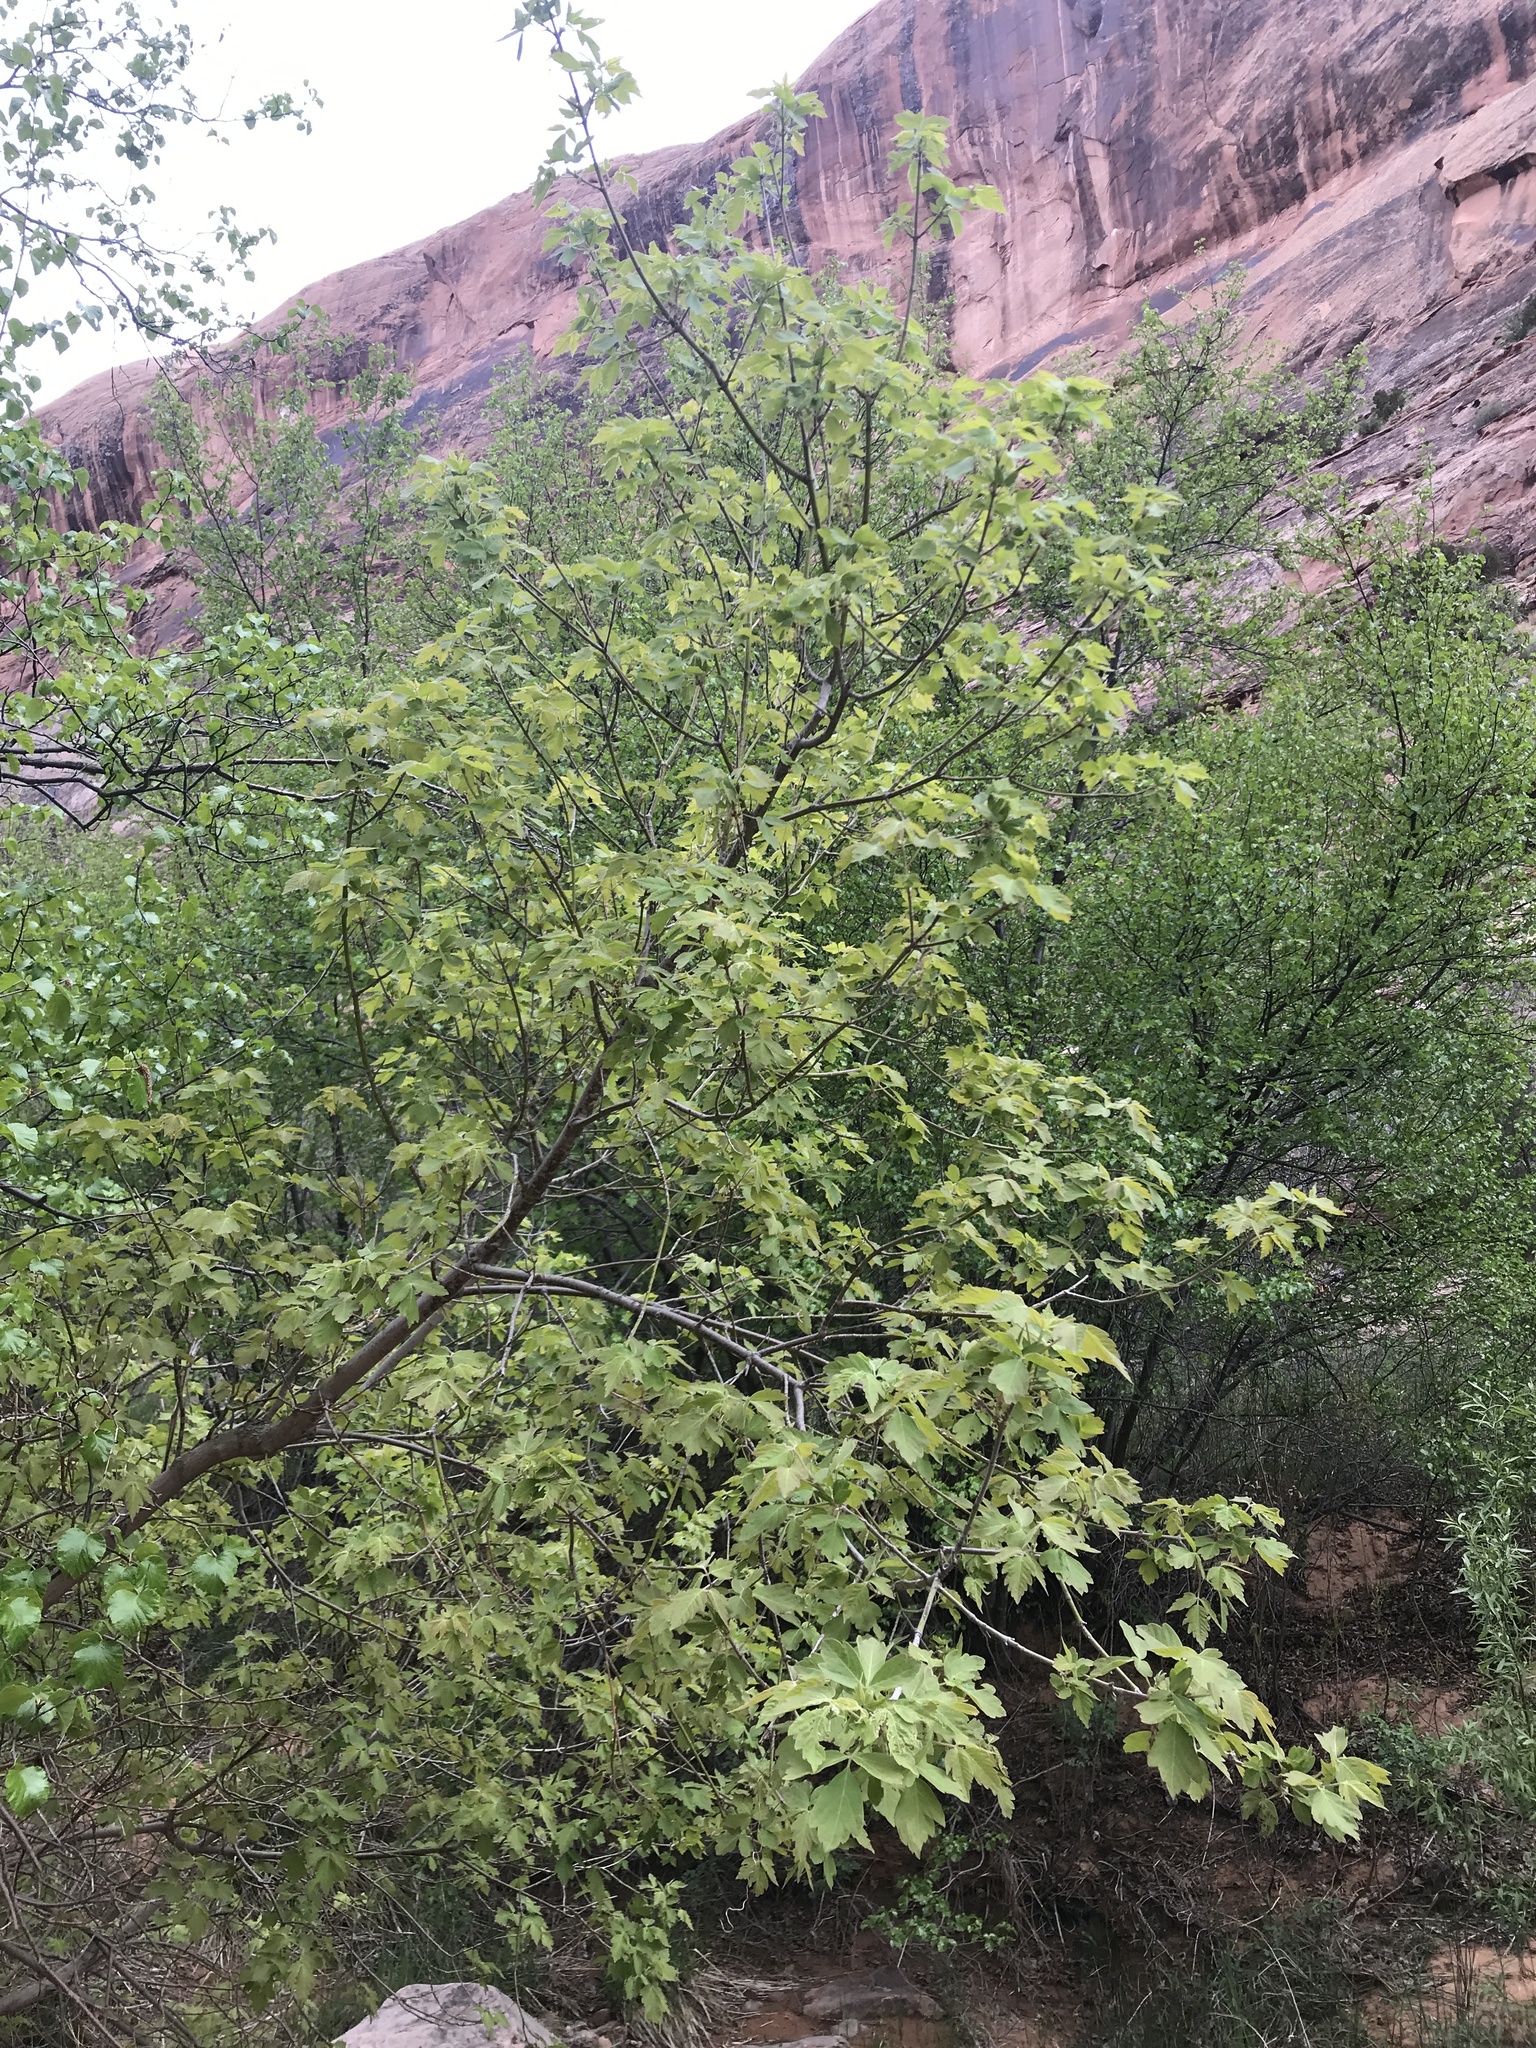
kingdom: Plantae
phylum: Tracheophyta
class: Magnoliopsida
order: Sapindales
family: Sapindaceae
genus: Acer
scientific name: Acer negundo
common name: Ashleaf maple
